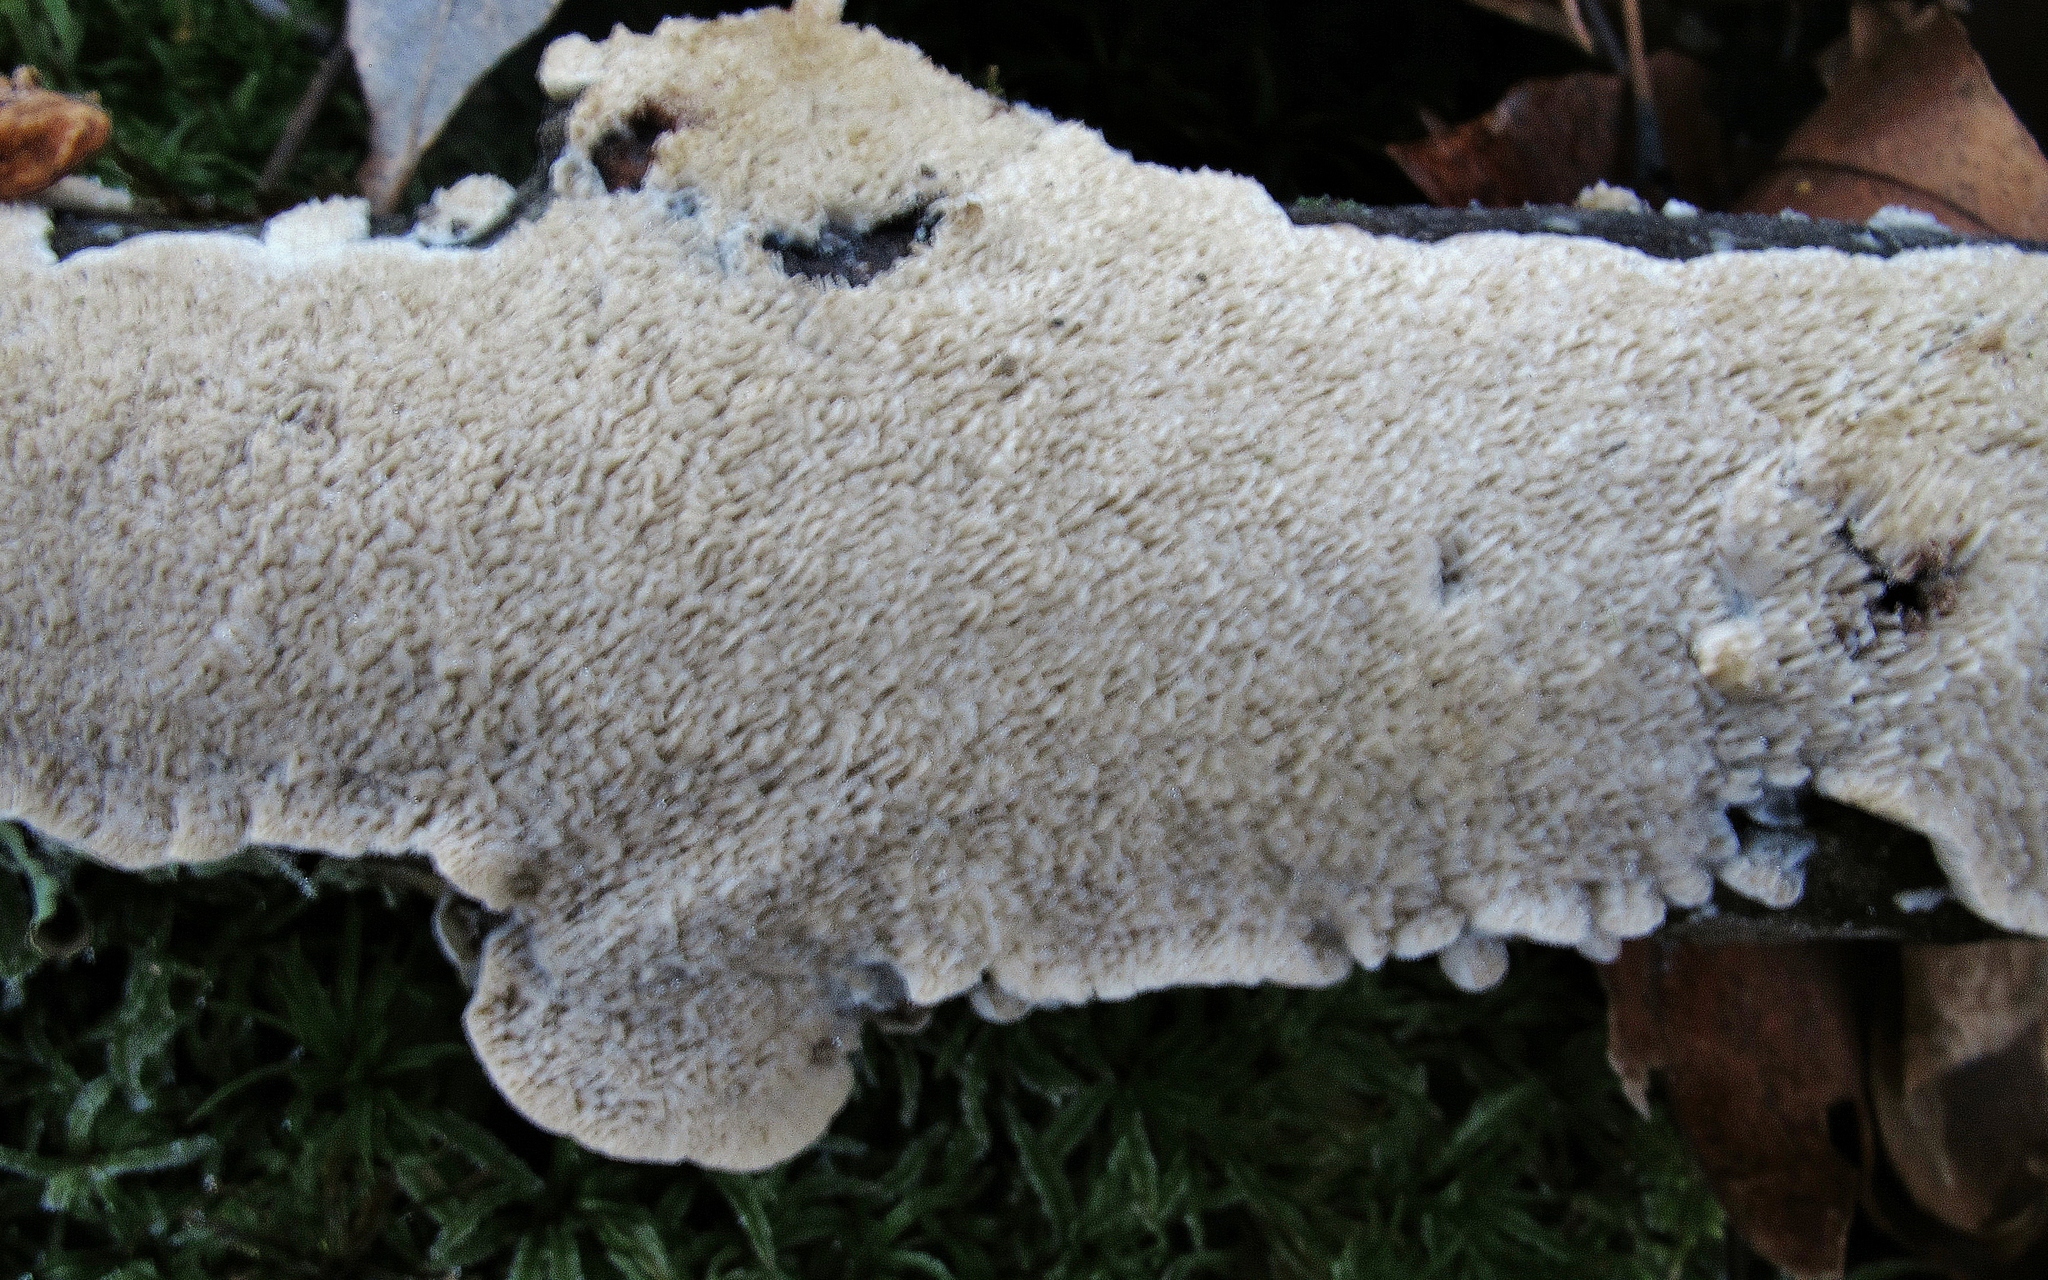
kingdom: Fungi
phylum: Basidiomycota
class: Agaricomycetes
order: Polyporales
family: Irpicaceae
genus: Irpex
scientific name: Irpex lacteus
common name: Milk-white toothed polypore
